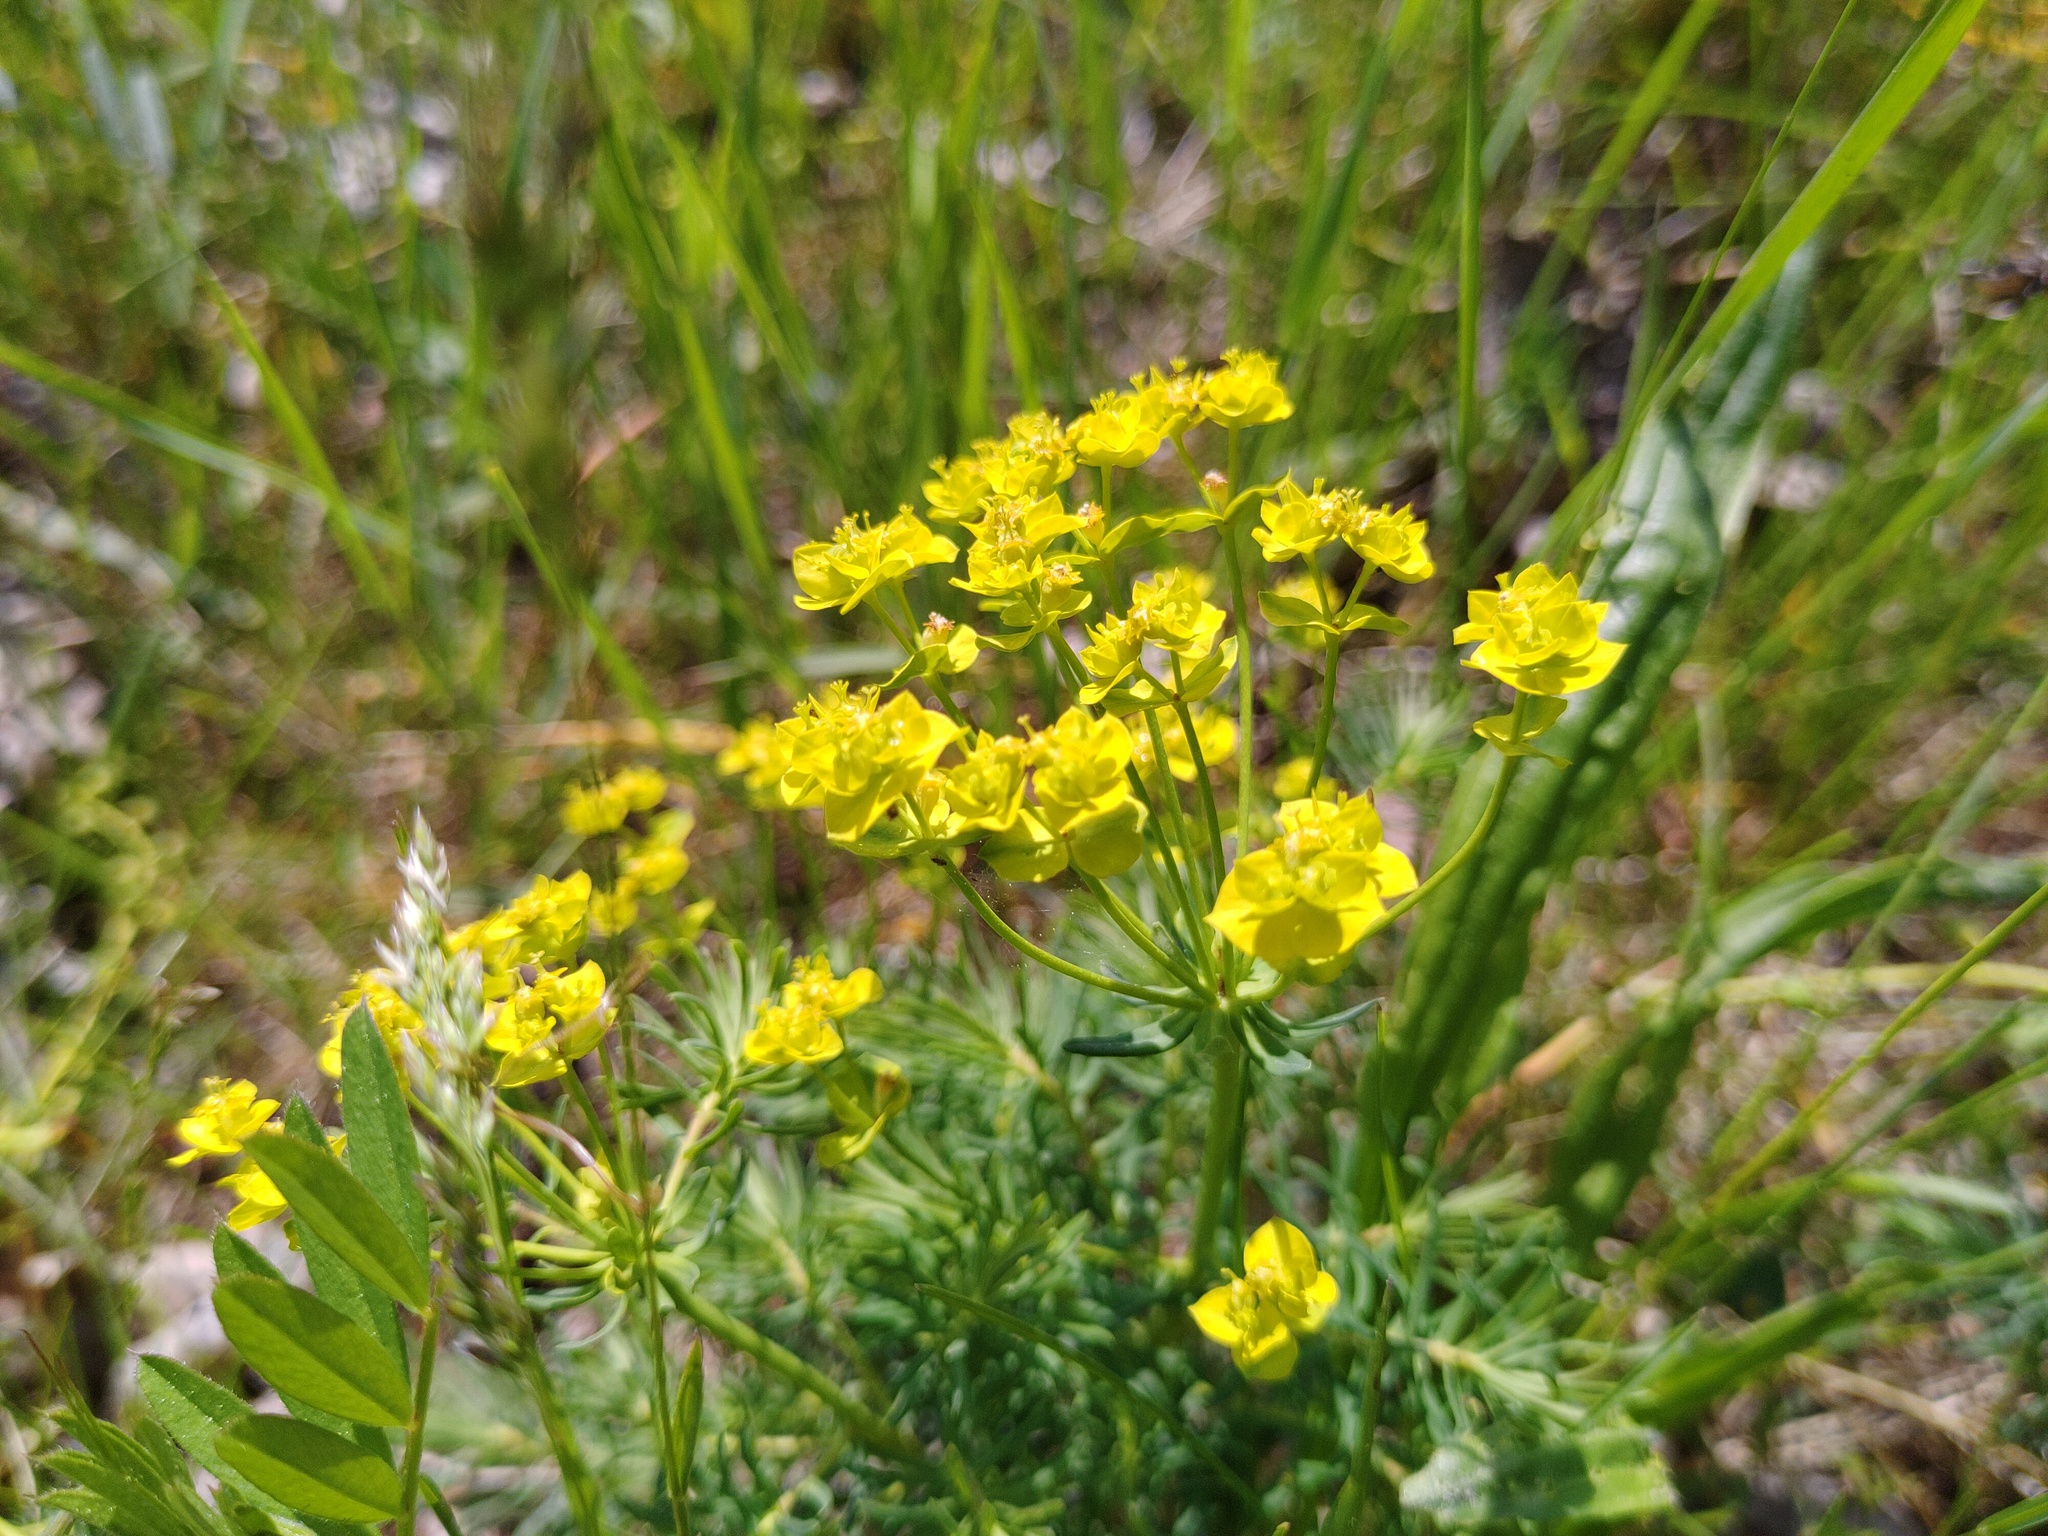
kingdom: Plantae
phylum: Tracheophyta
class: Magnoliopsida
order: Malpighiales
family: Euphorbiaceae
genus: Euphorbia
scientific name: Euphorbia cyparissias
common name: Cypress spurge
